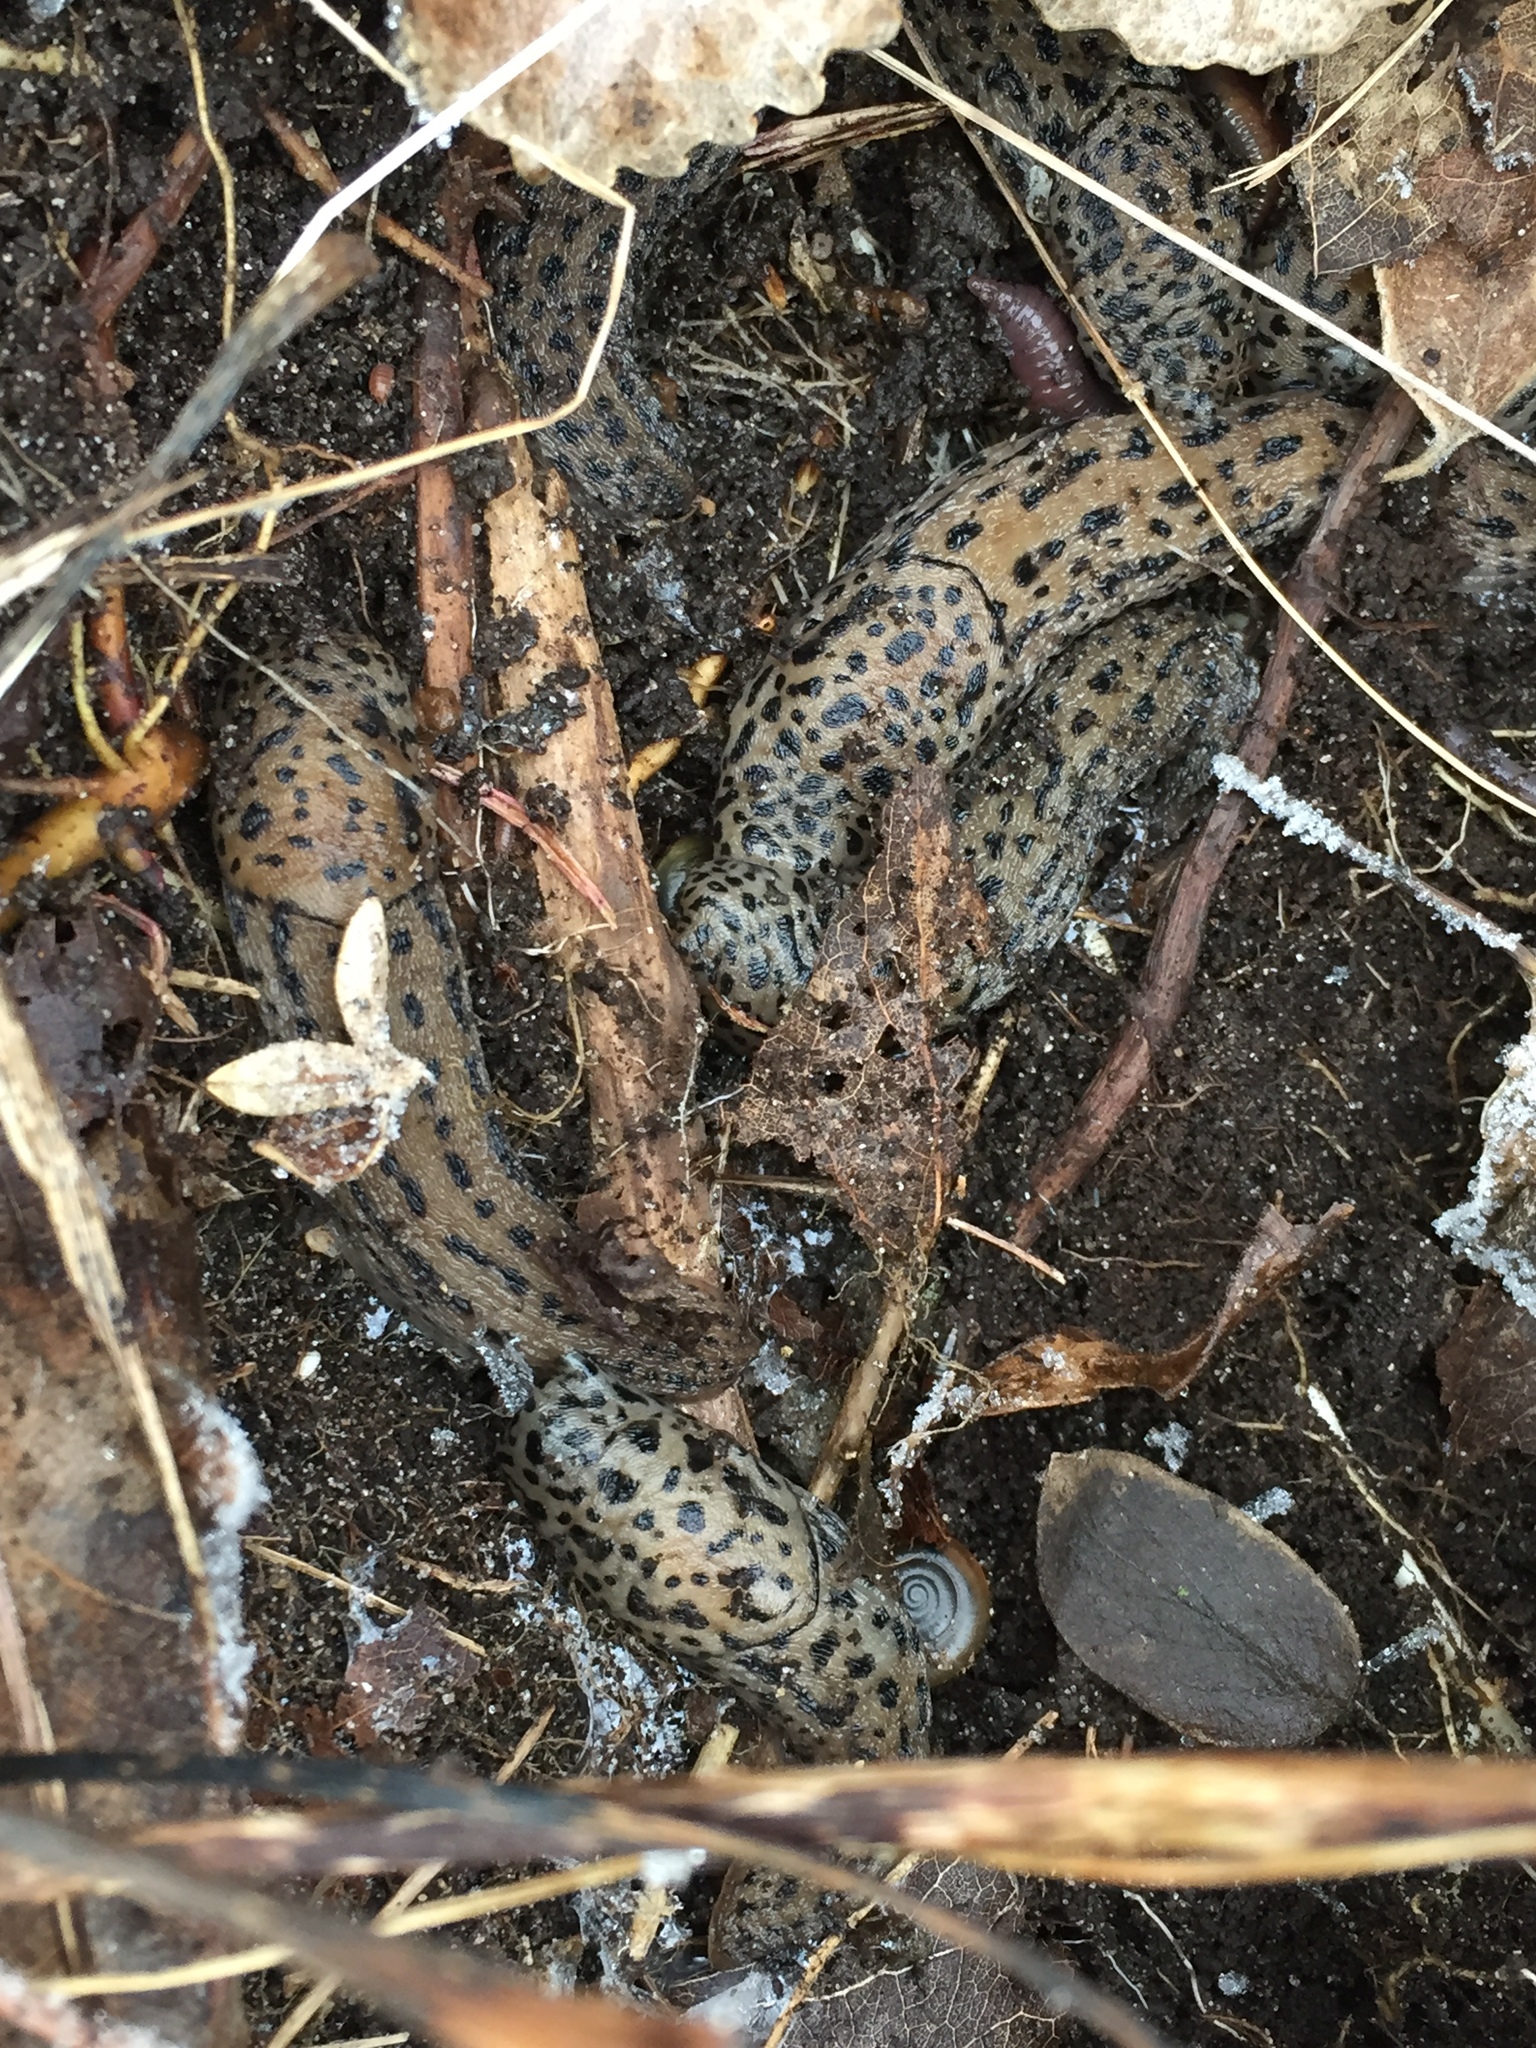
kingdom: Animalia
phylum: Mollusca
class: Gastropoda
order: Stylommatophora
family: Limacidae
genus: Limax
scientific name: Limax maximus
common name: Great grey slug
